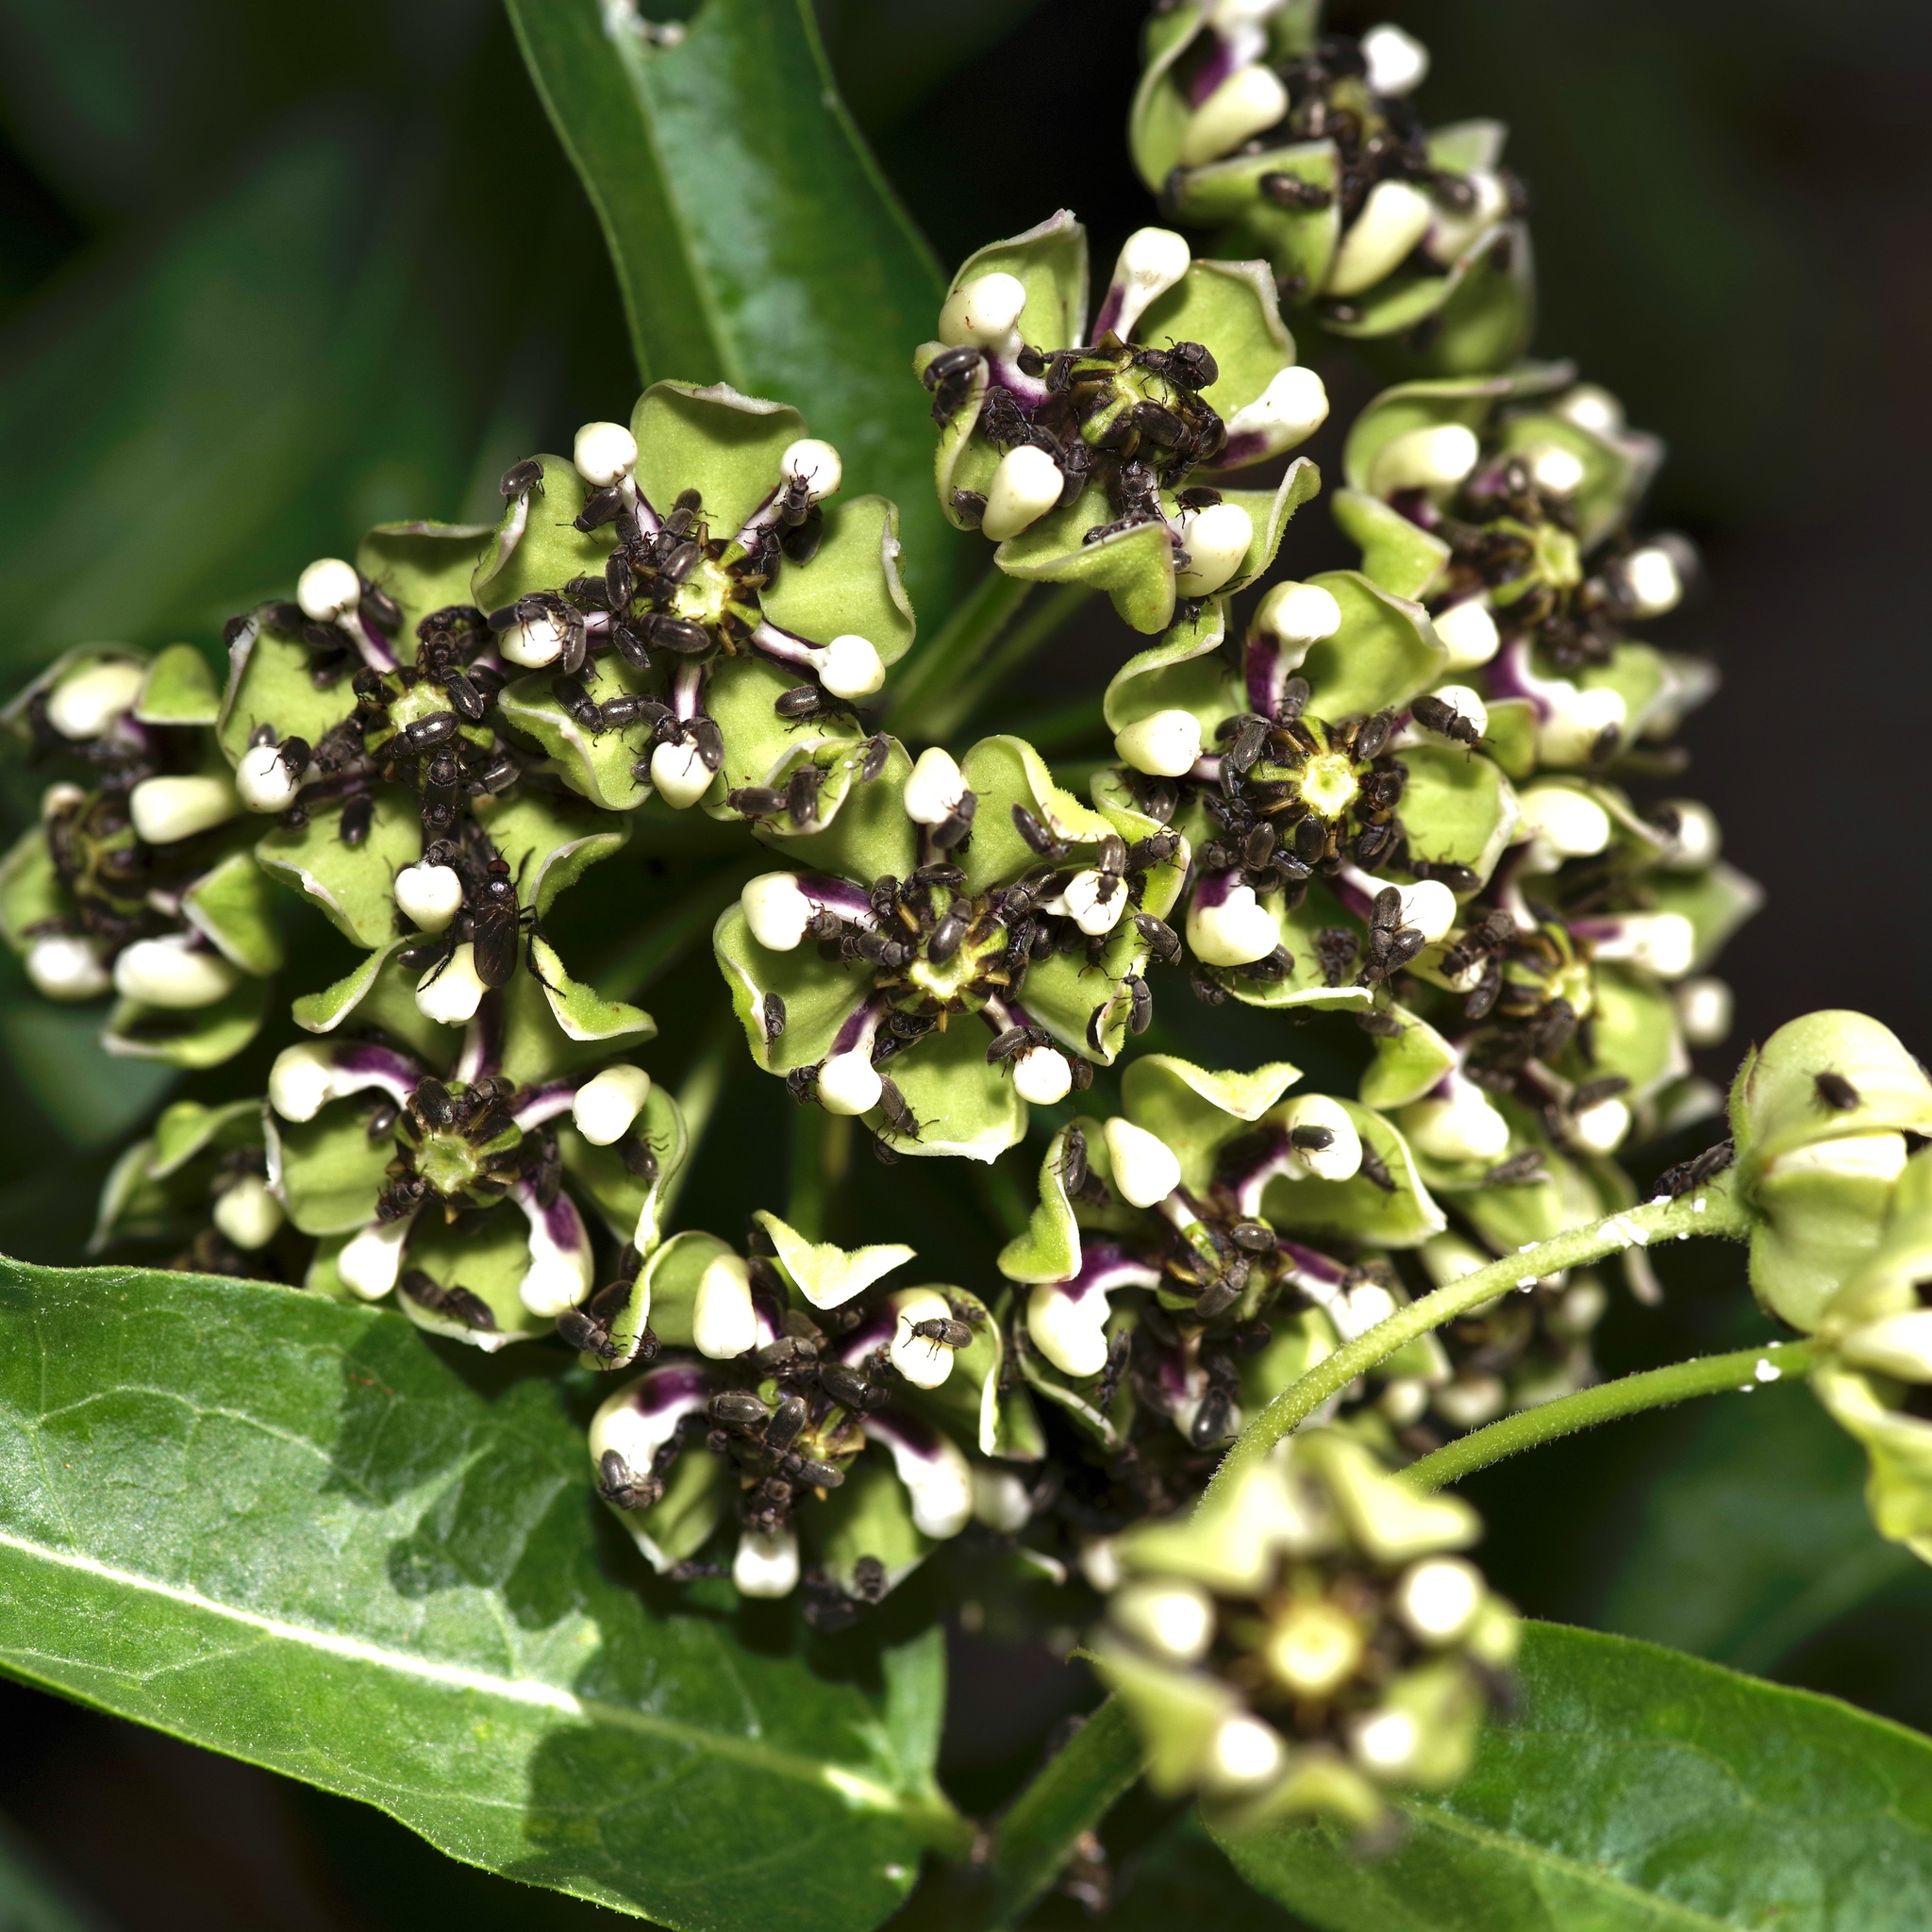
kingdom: Plantae
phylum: Tracheophyta
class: Magnoliopsida
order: Gentianales
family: Apocynaceae
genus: Asclepias
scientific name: Asclepias asperula
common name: Antelope horns
